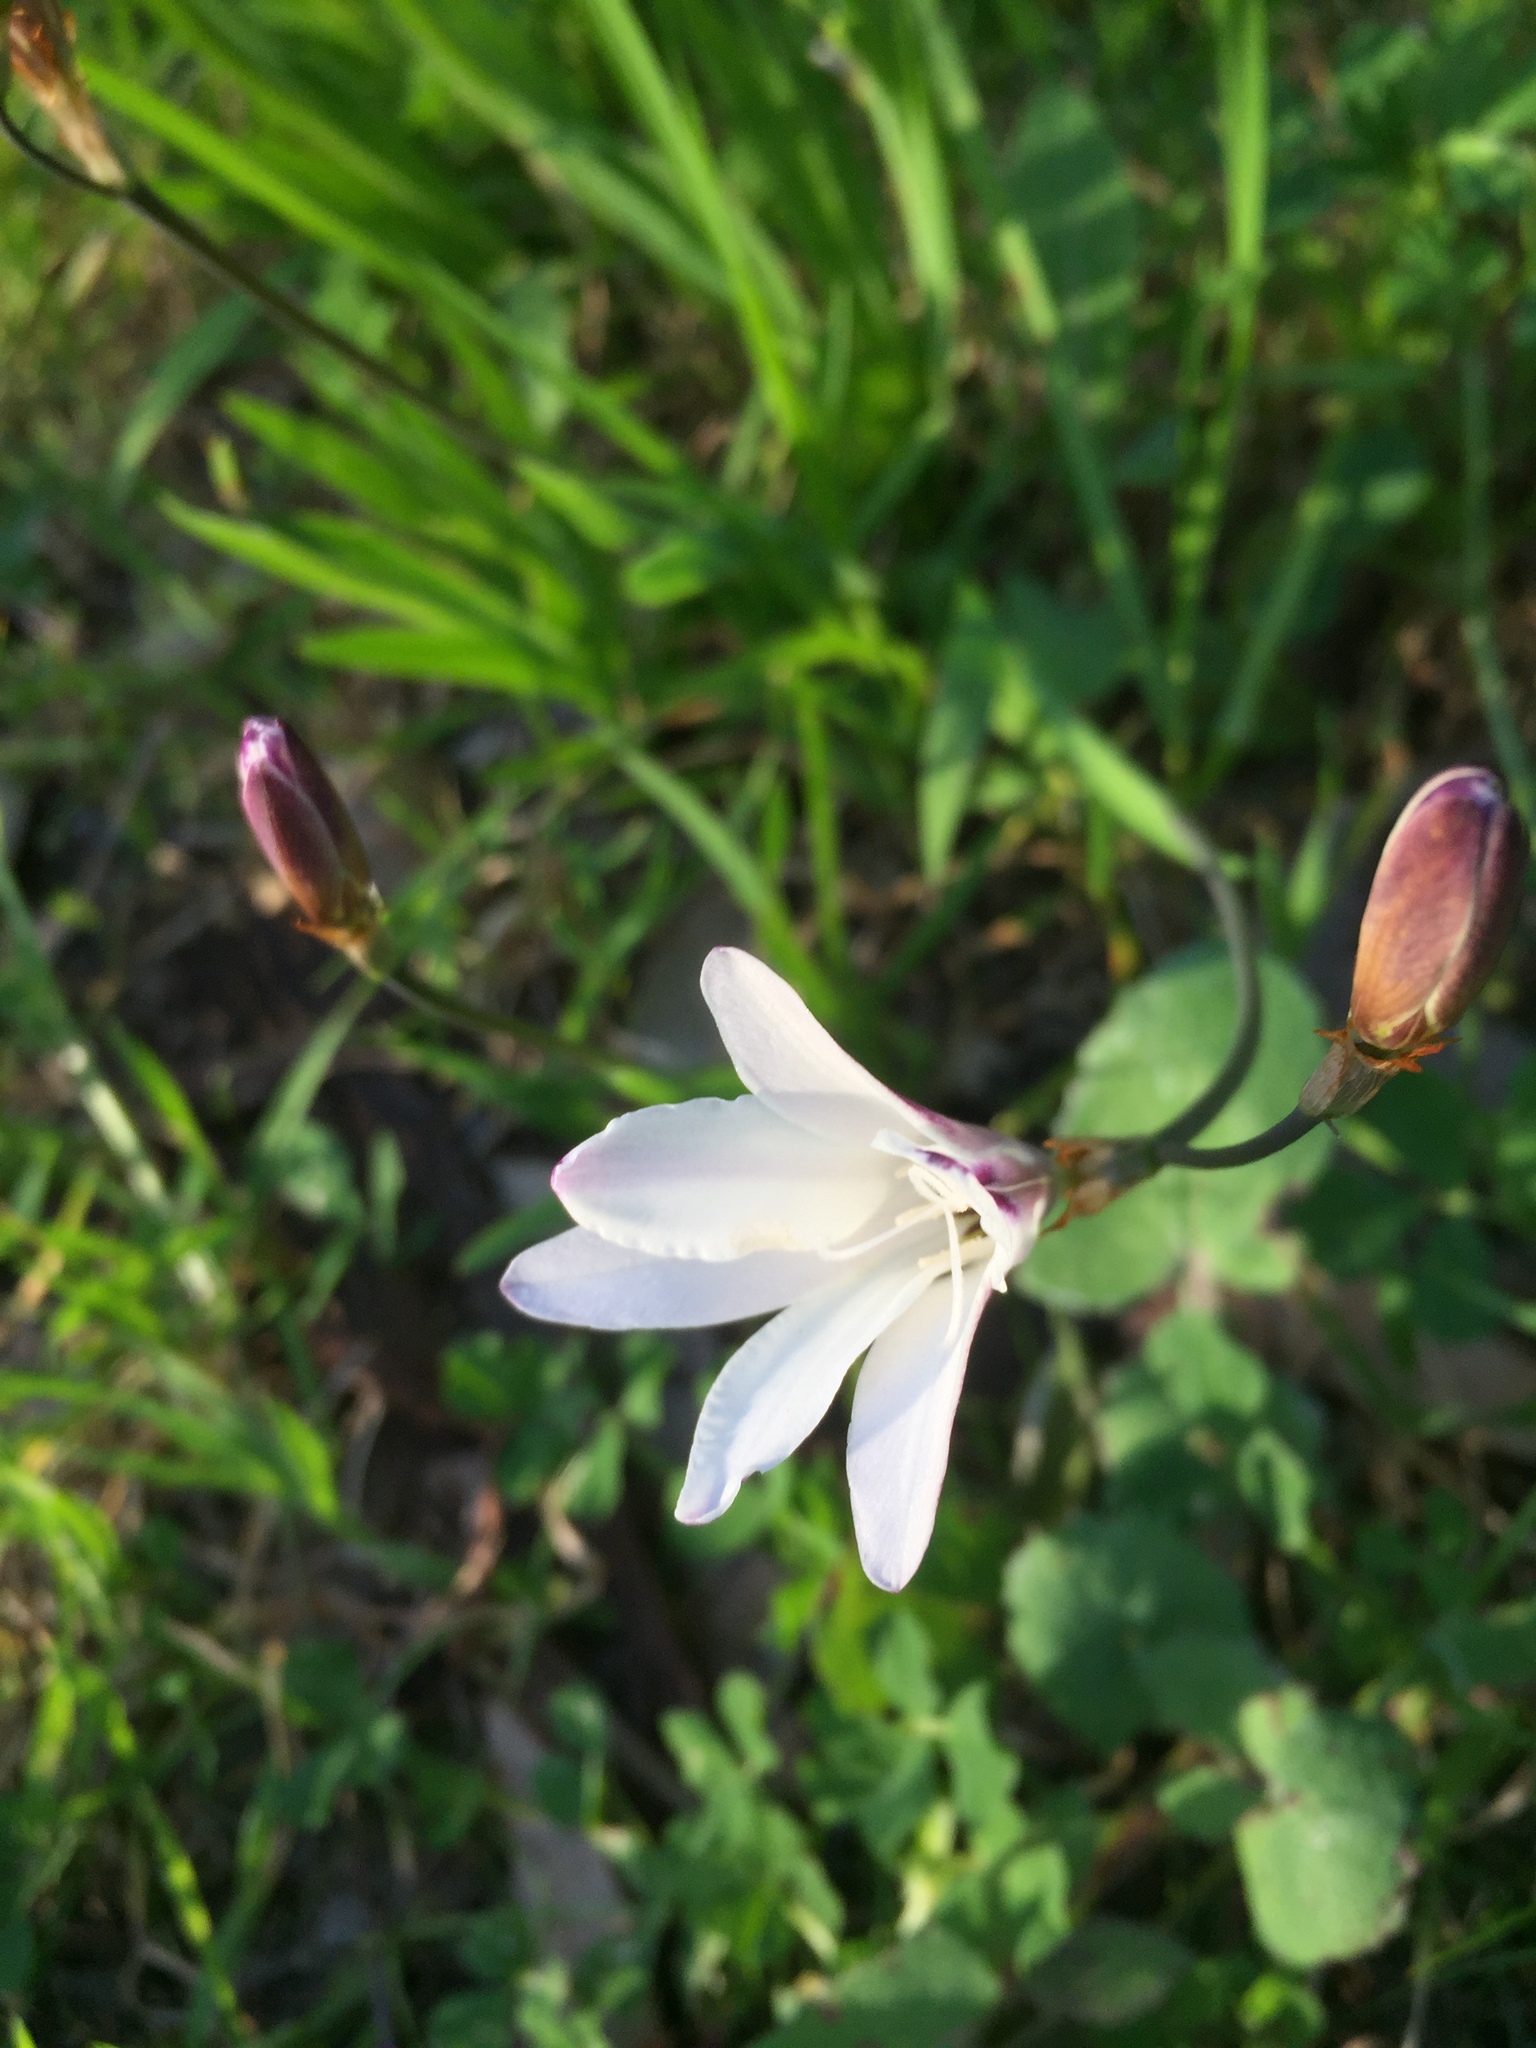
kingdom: Plantae
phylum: Tracheophyta
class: Liliopsida
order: Asparagales
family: Iridaceae
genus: Sparaxis
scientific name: Sparaxis bulbifera
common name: Harlequin-flower
